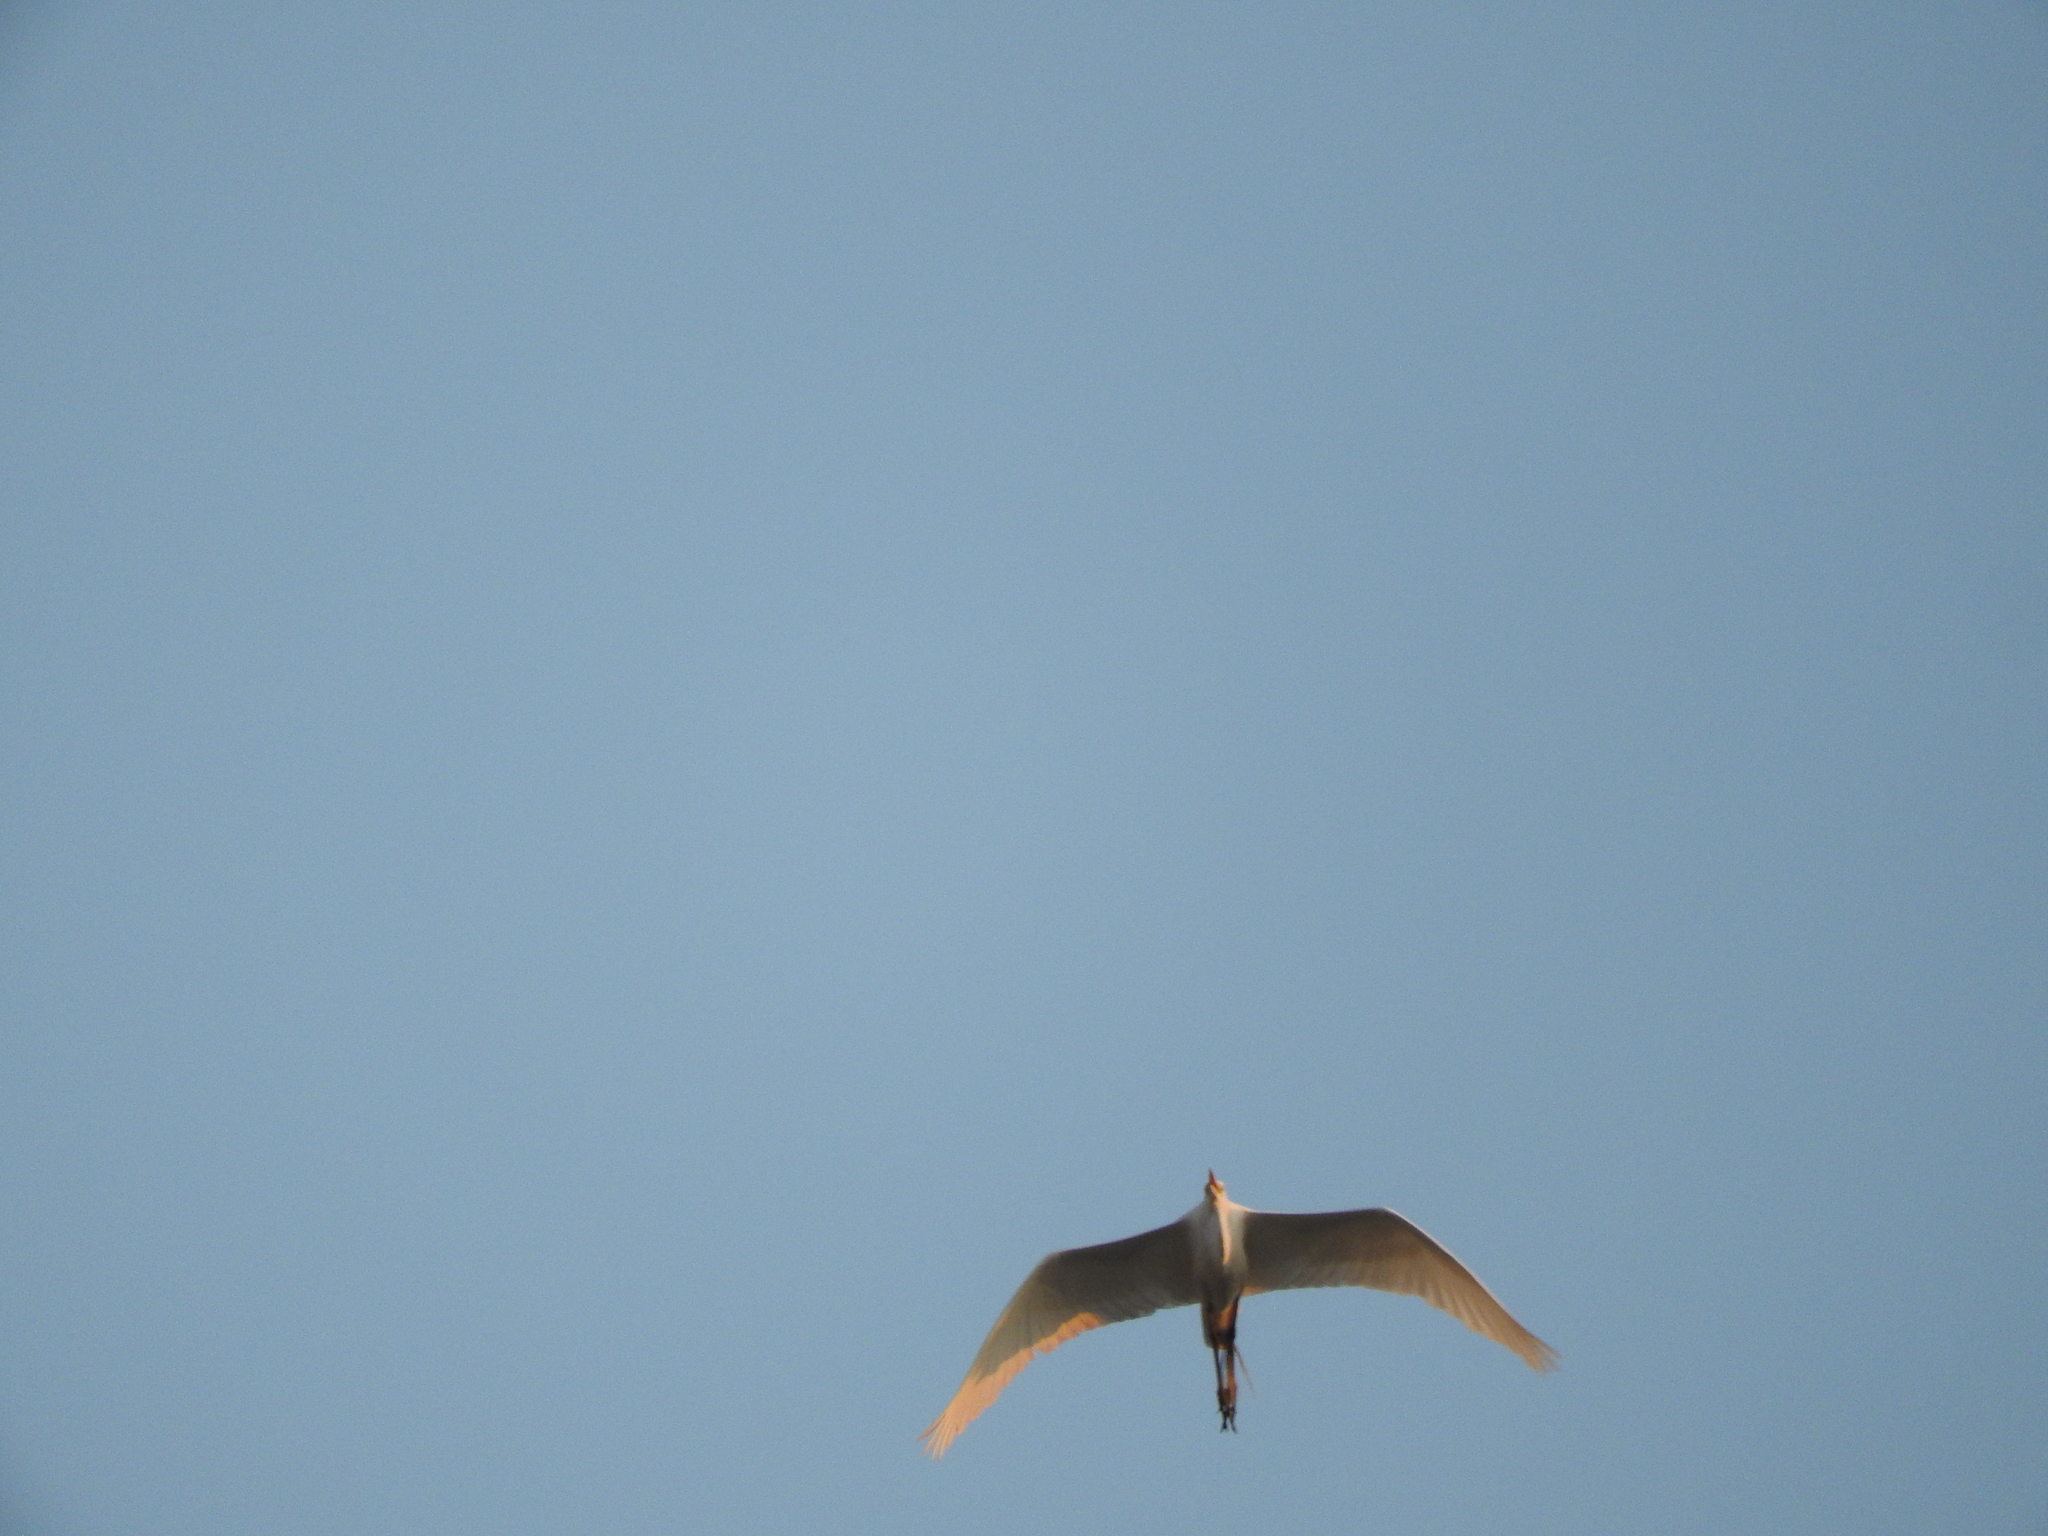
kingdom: Animalia
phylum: Chordata
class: Aves
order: Pelecaniformes
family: Ardeidae
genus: Bubulcus
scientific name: Bubulcus ibis
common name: Cattle egret
